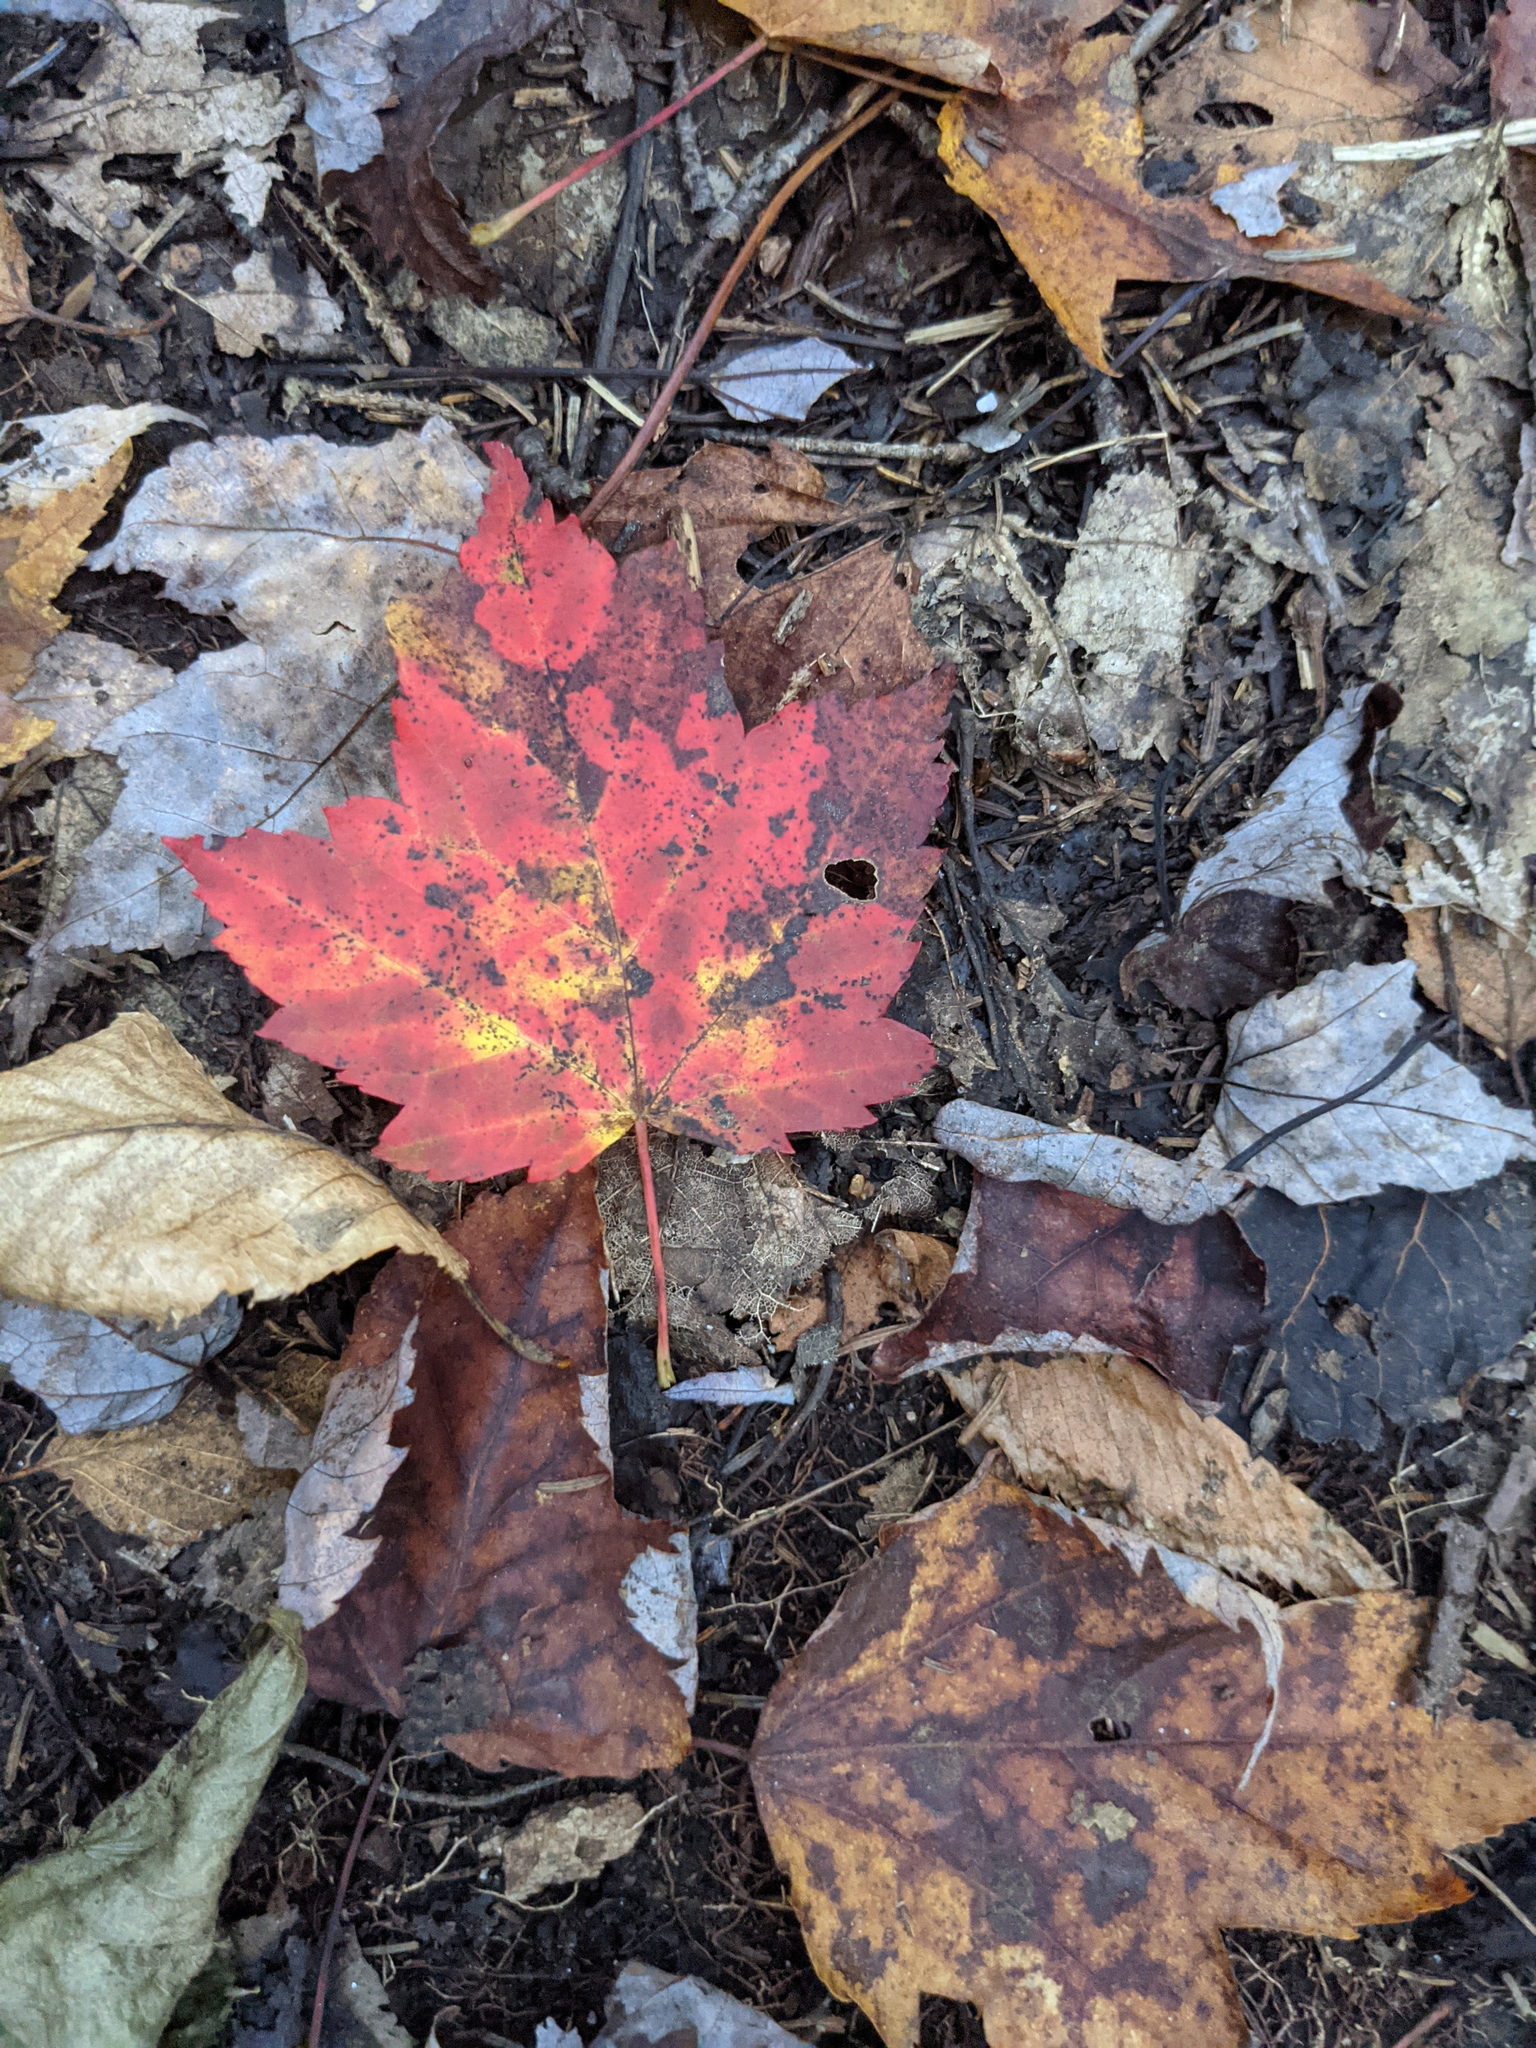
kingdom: Plantae
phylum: Tracheophyta
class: Magnoliopsida
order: Sapindales
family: Sapindaceae
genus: Acer
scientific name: Acer rubrum
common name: Red maple
